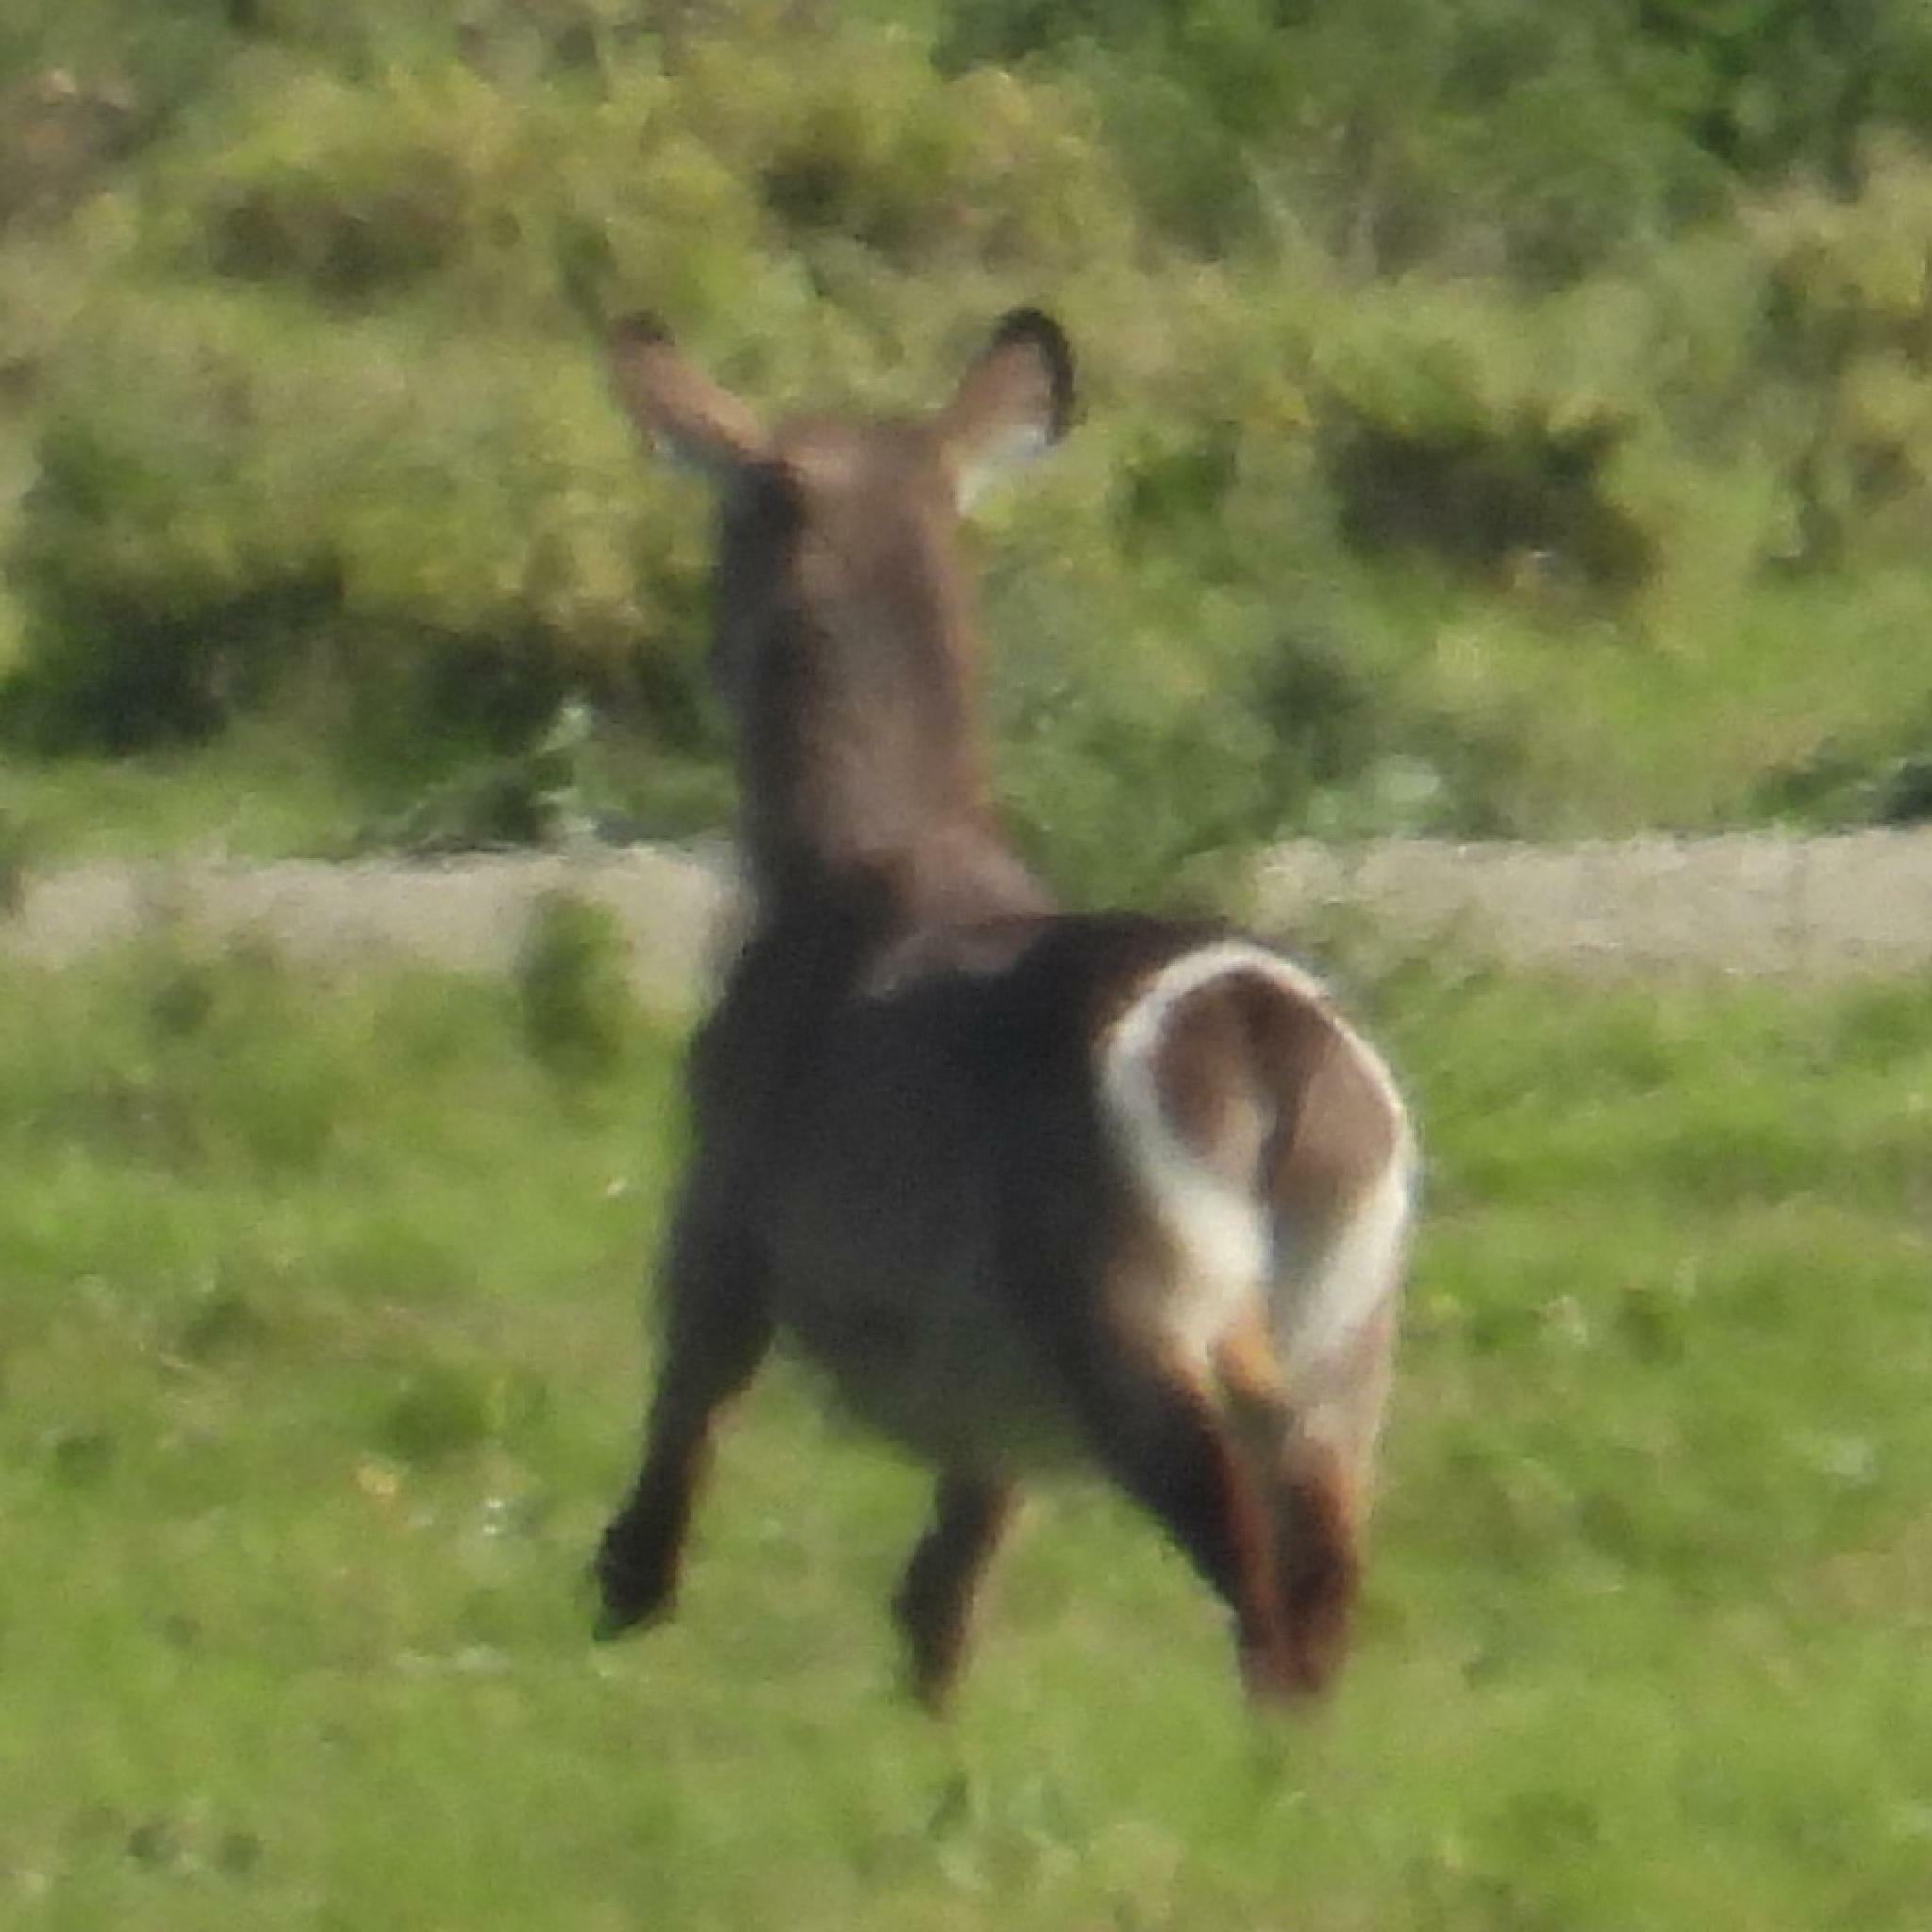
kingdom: Animalia
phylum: Chordata
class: Mammalia
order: Artiodactyla
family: Bovidae
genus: Kobus
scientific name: Kobus ellipsiprymnus
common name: Waterbuck
